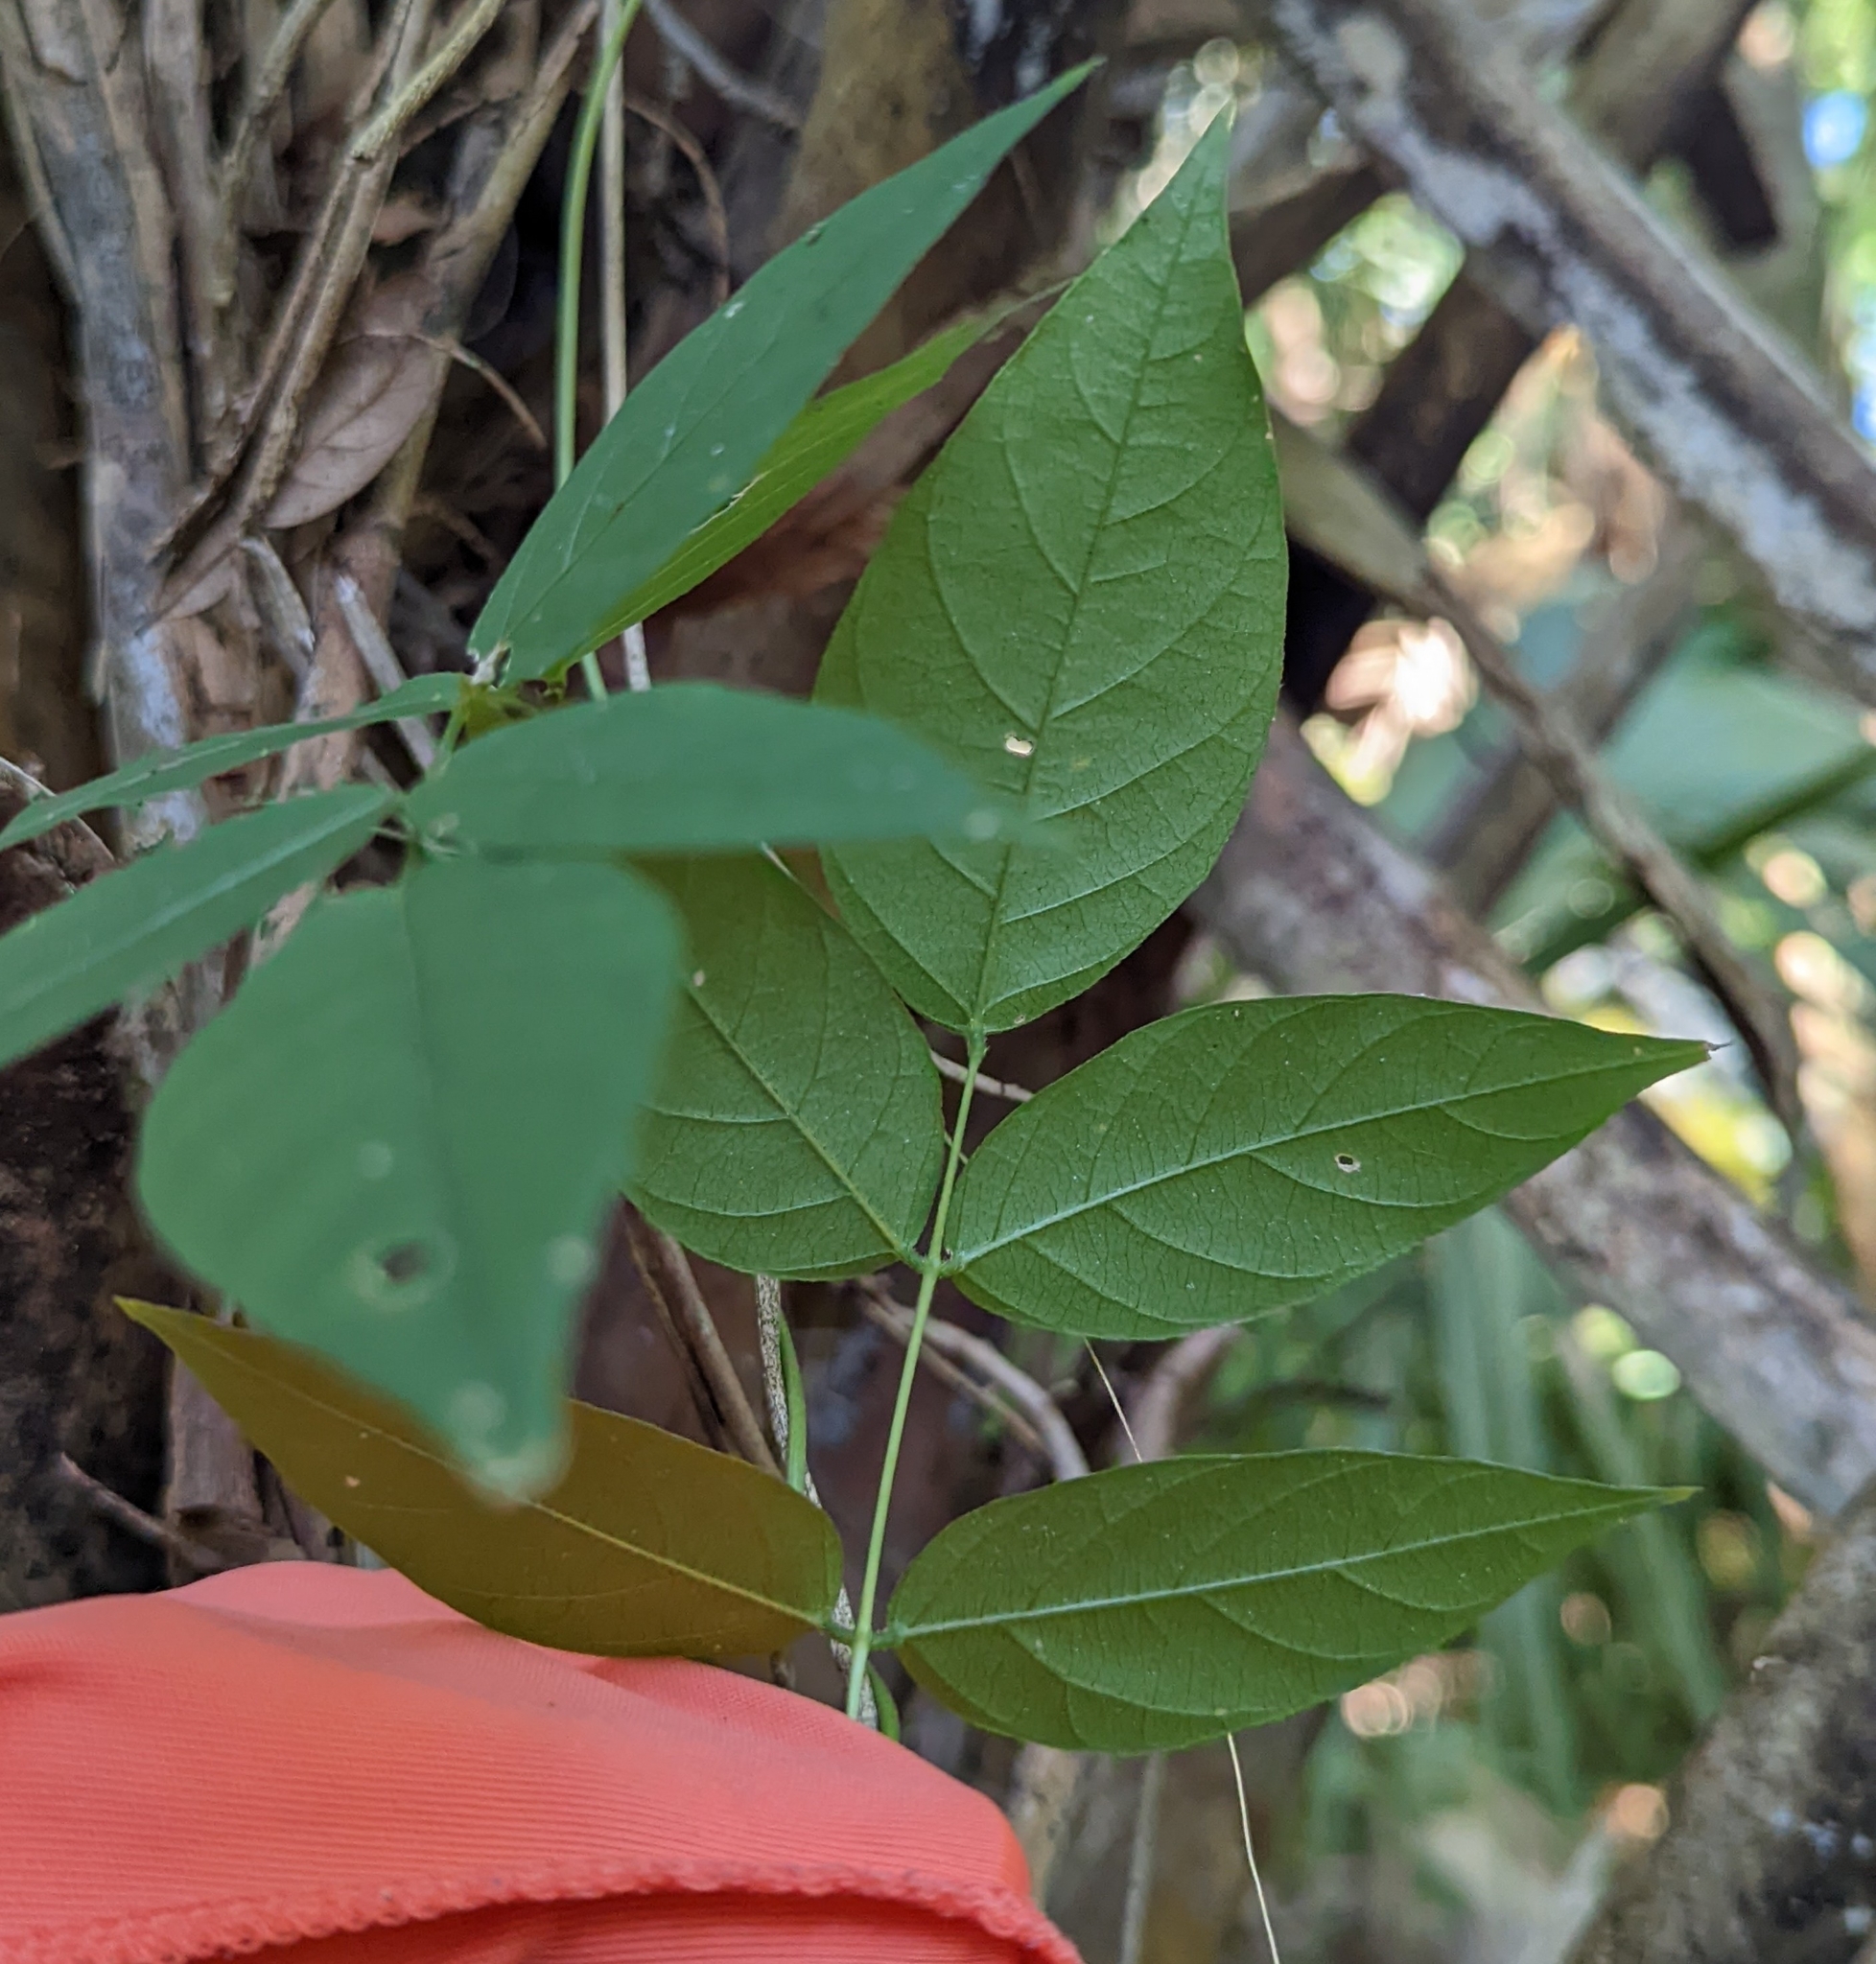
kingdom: Plantae
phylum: Tracheophyta
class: Magnoliopsida
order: Fabales
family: Fabaceae
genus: Apios
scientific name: Apios americana
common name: American potato-bean
